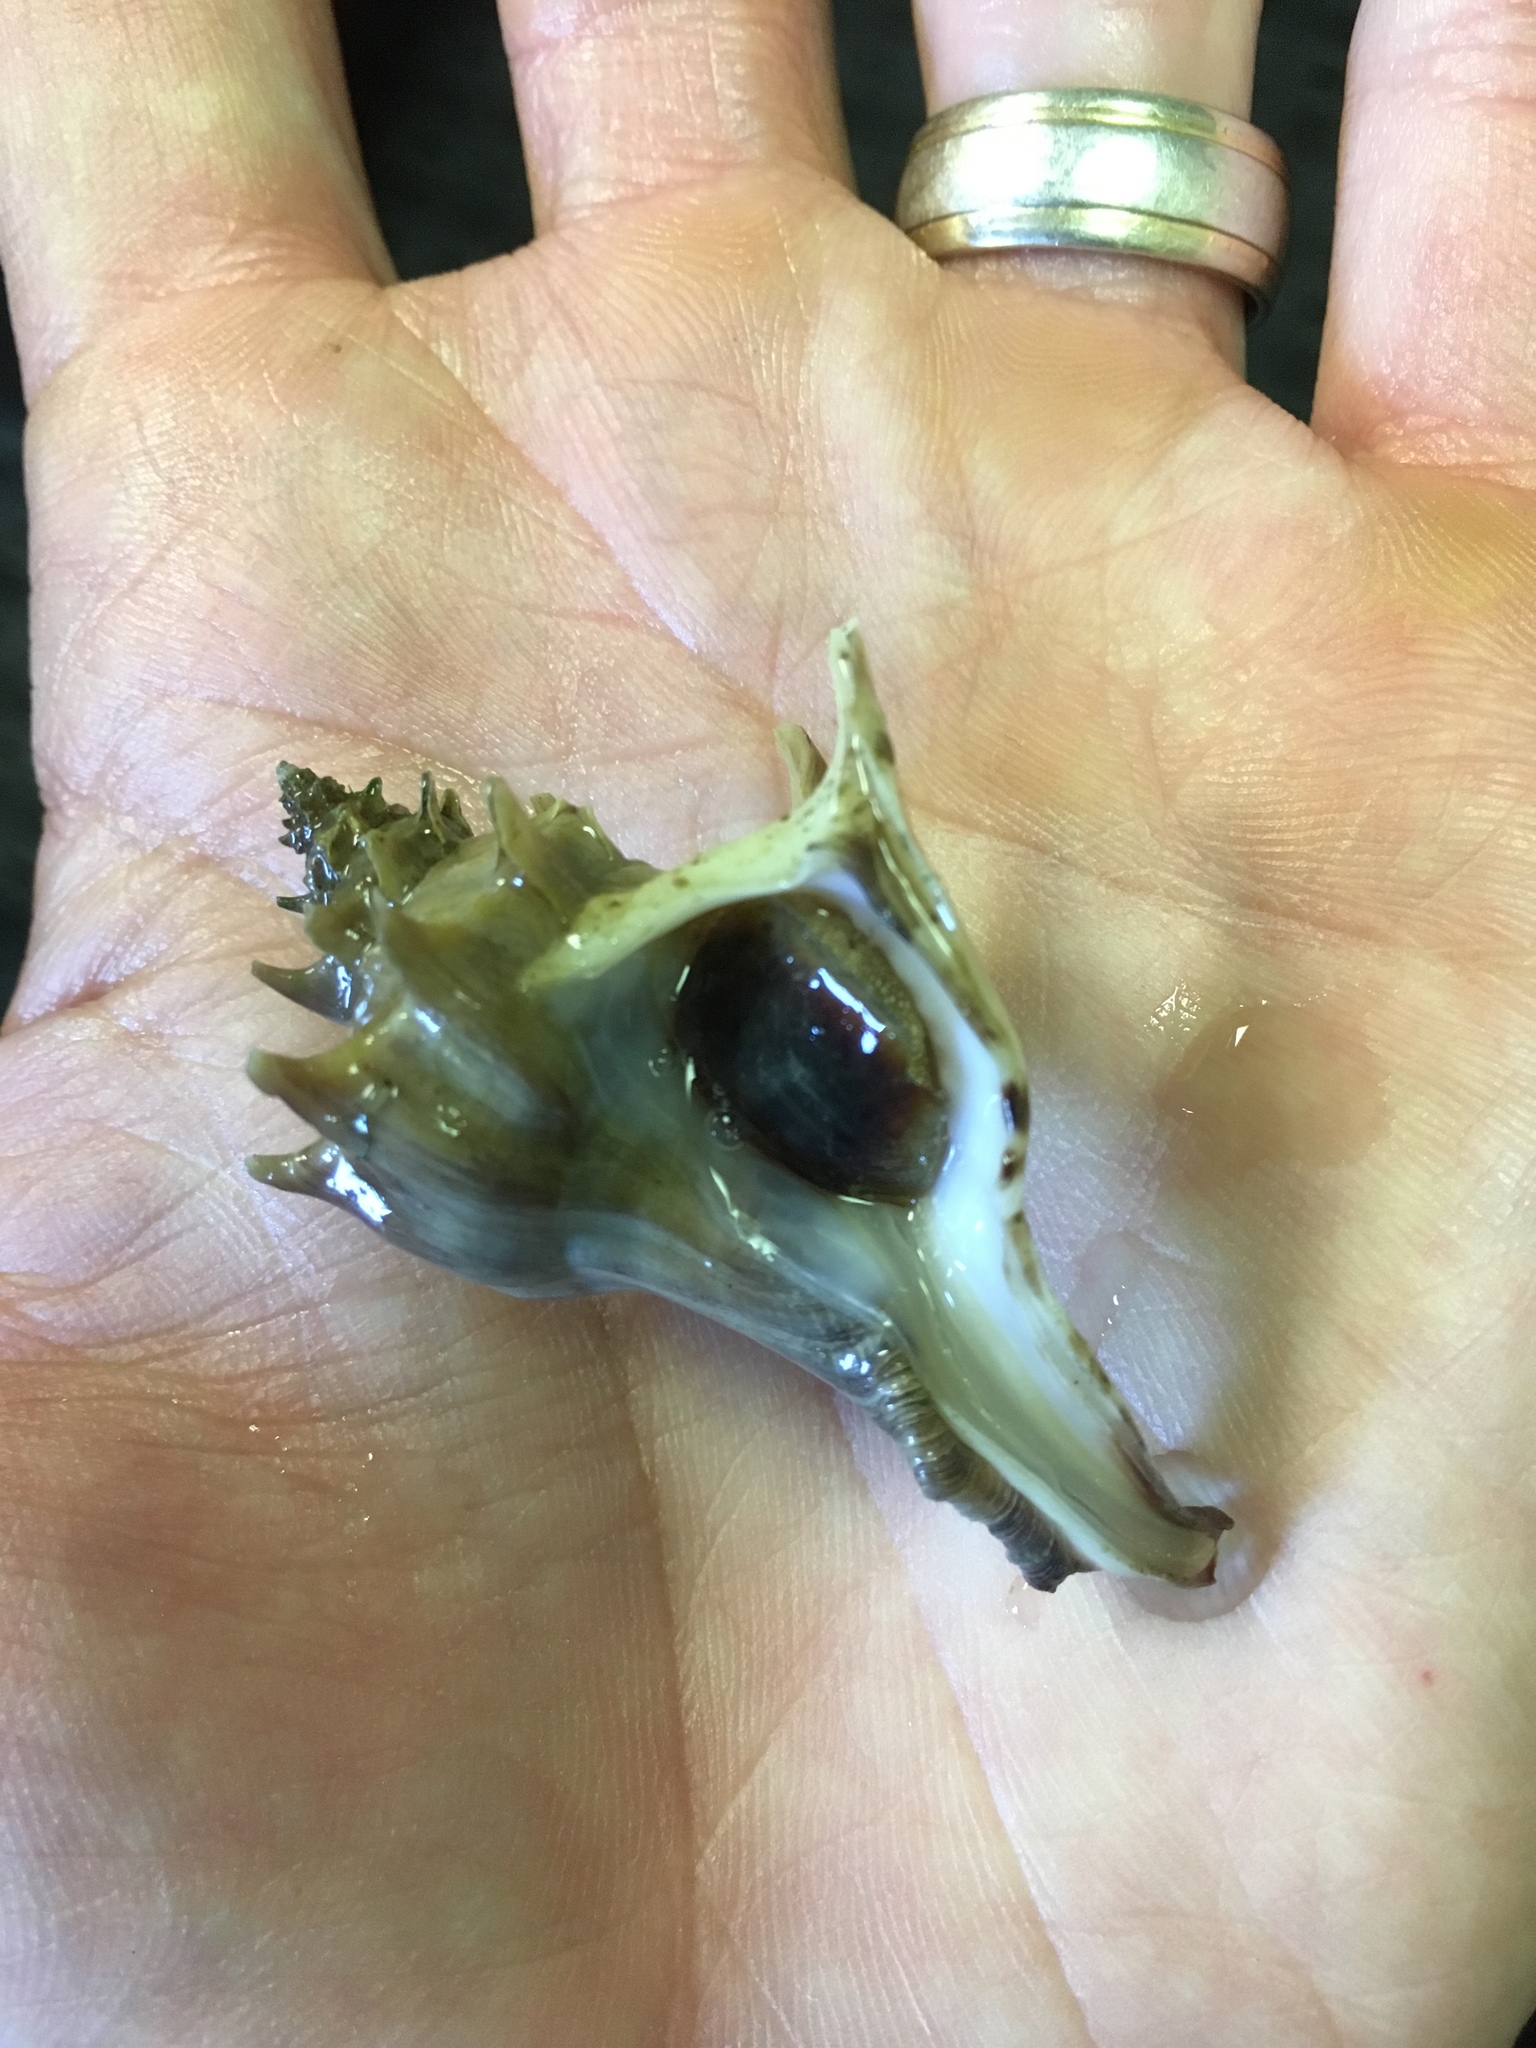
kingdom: Animalia
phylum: Mollusca
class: Gastropoda
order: Neogastropoda
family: Muricidae
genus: Forreria
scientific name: Forreria belcheri
